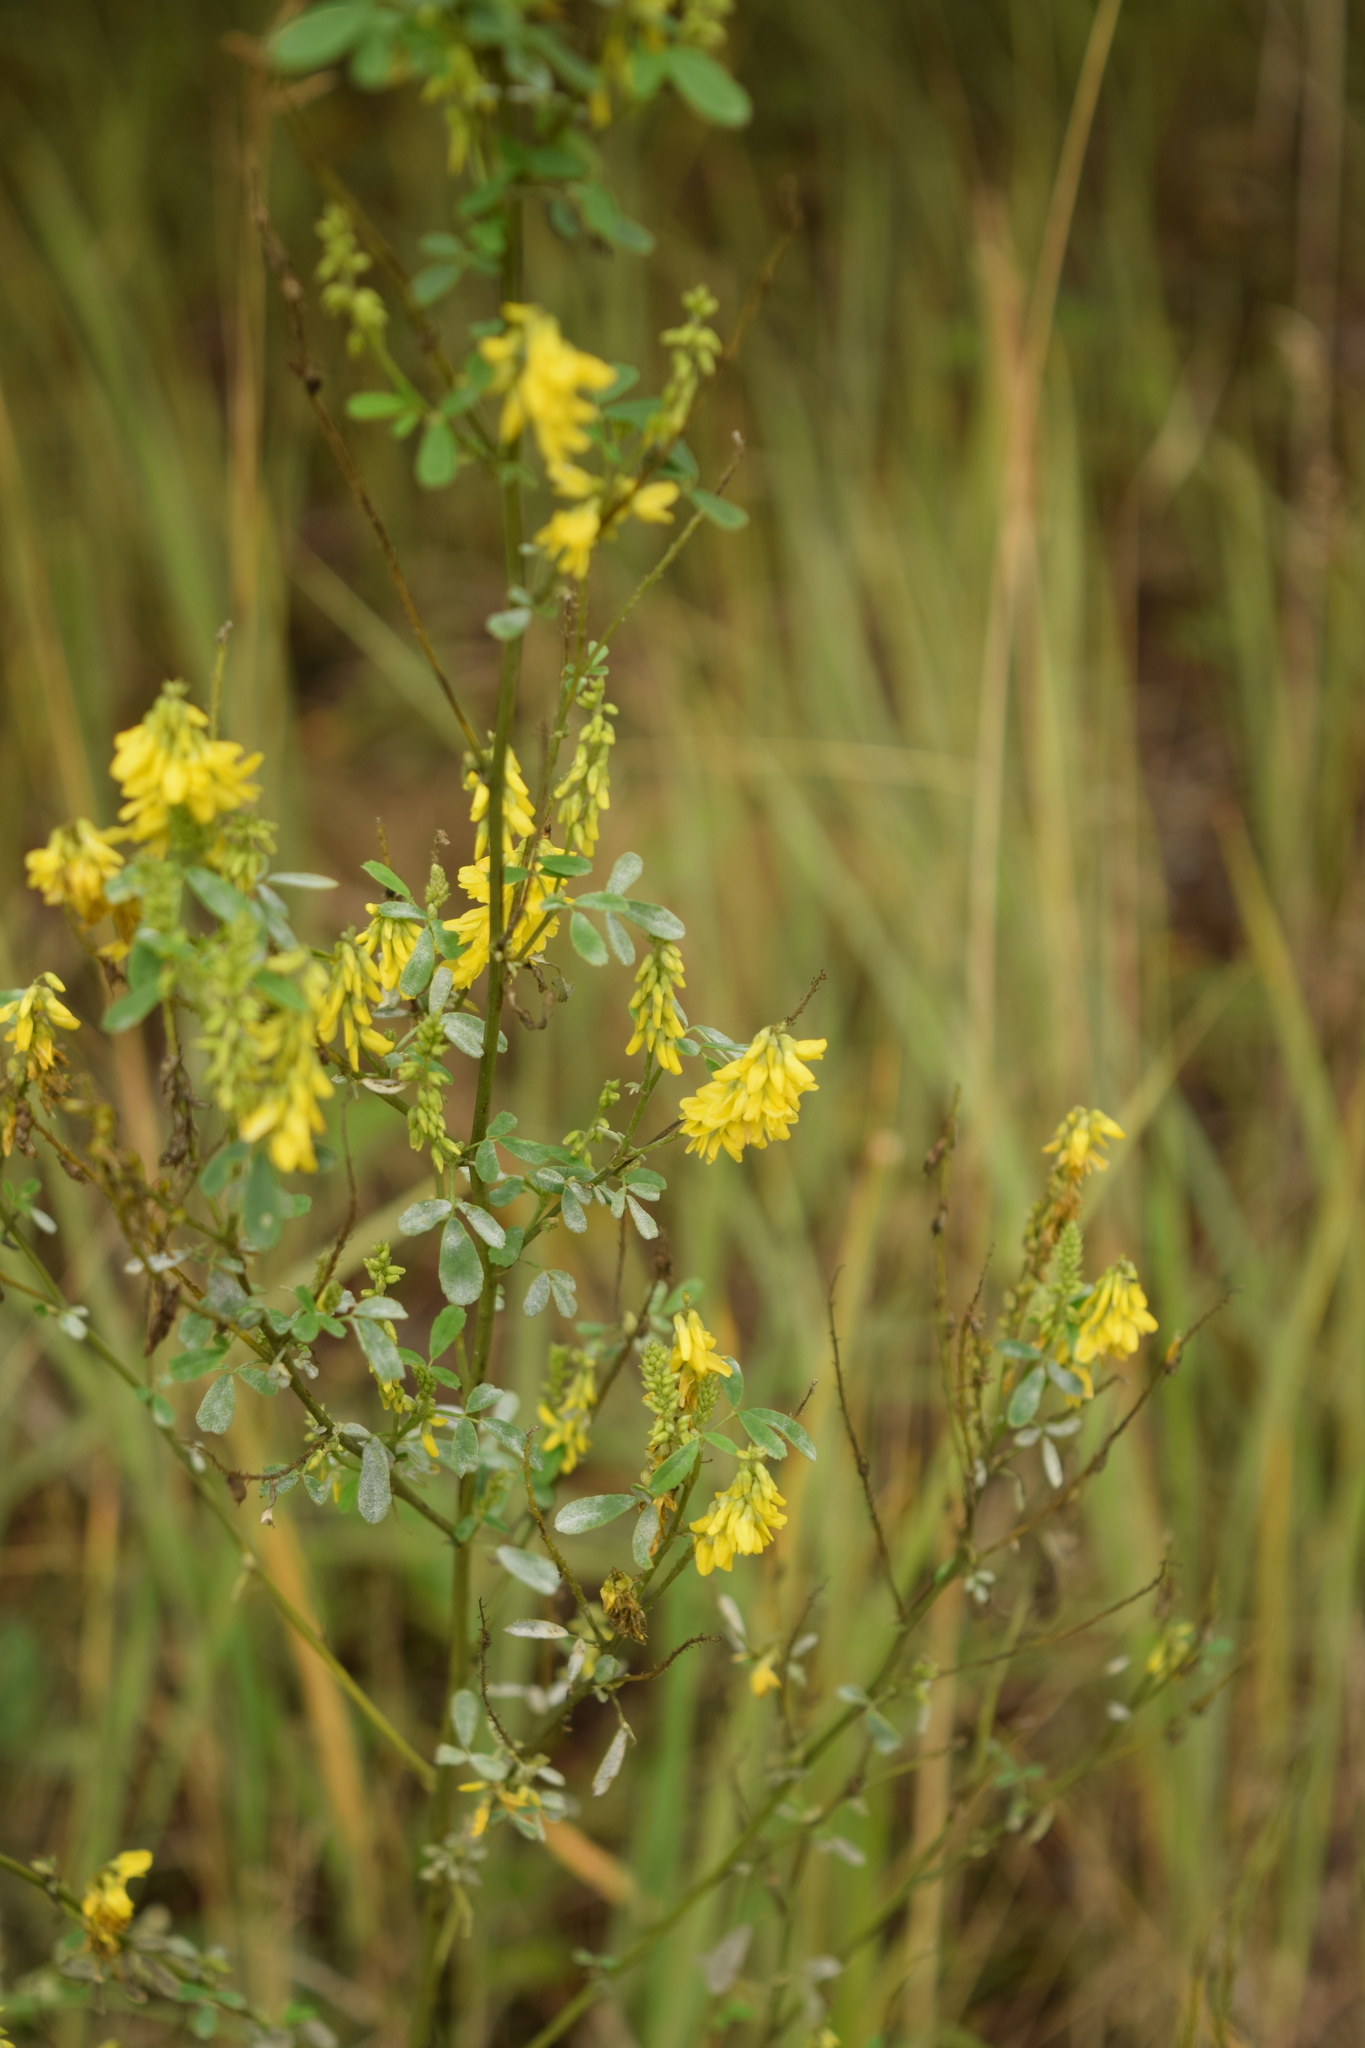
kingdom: Plantae
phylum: Tracheophyta
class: Magnoliopsida
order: Fabales
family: Fabaceae
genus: Melilotus
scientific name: Melilotus officinalis
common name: Sweetclover
